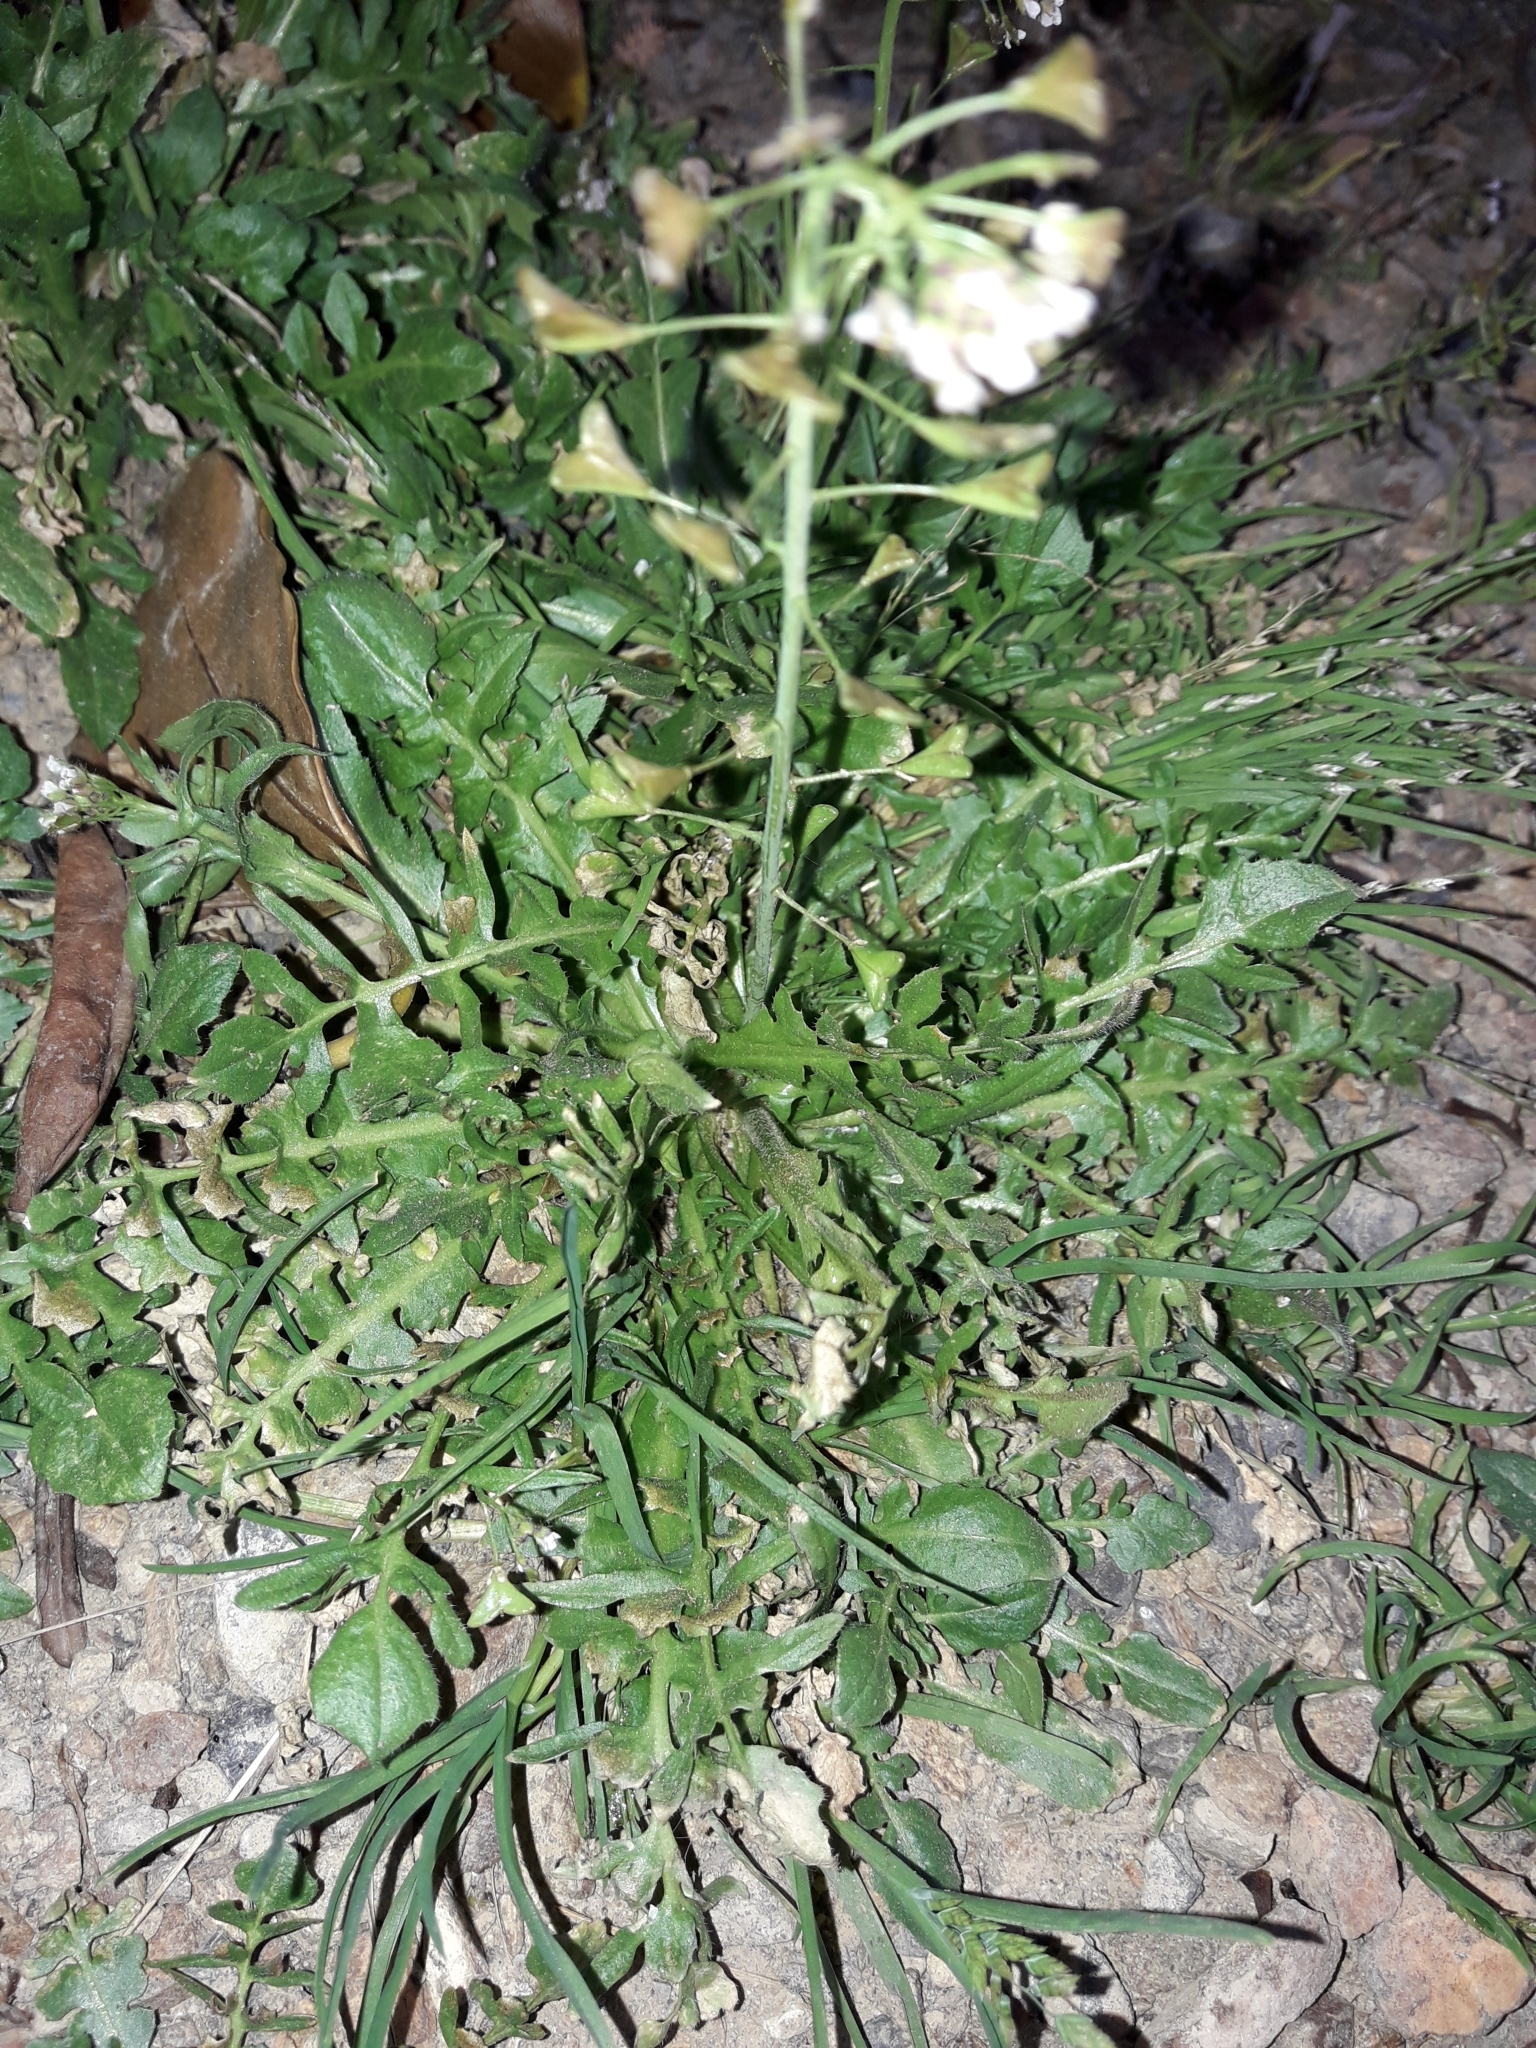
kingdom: Plantae
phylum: Tracheophyta
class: Magnoliopsida
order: Brassicales
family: Brassicaceae
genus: Capsella
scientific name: Capsella bursa-pastoris
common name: Shepherd's purse
